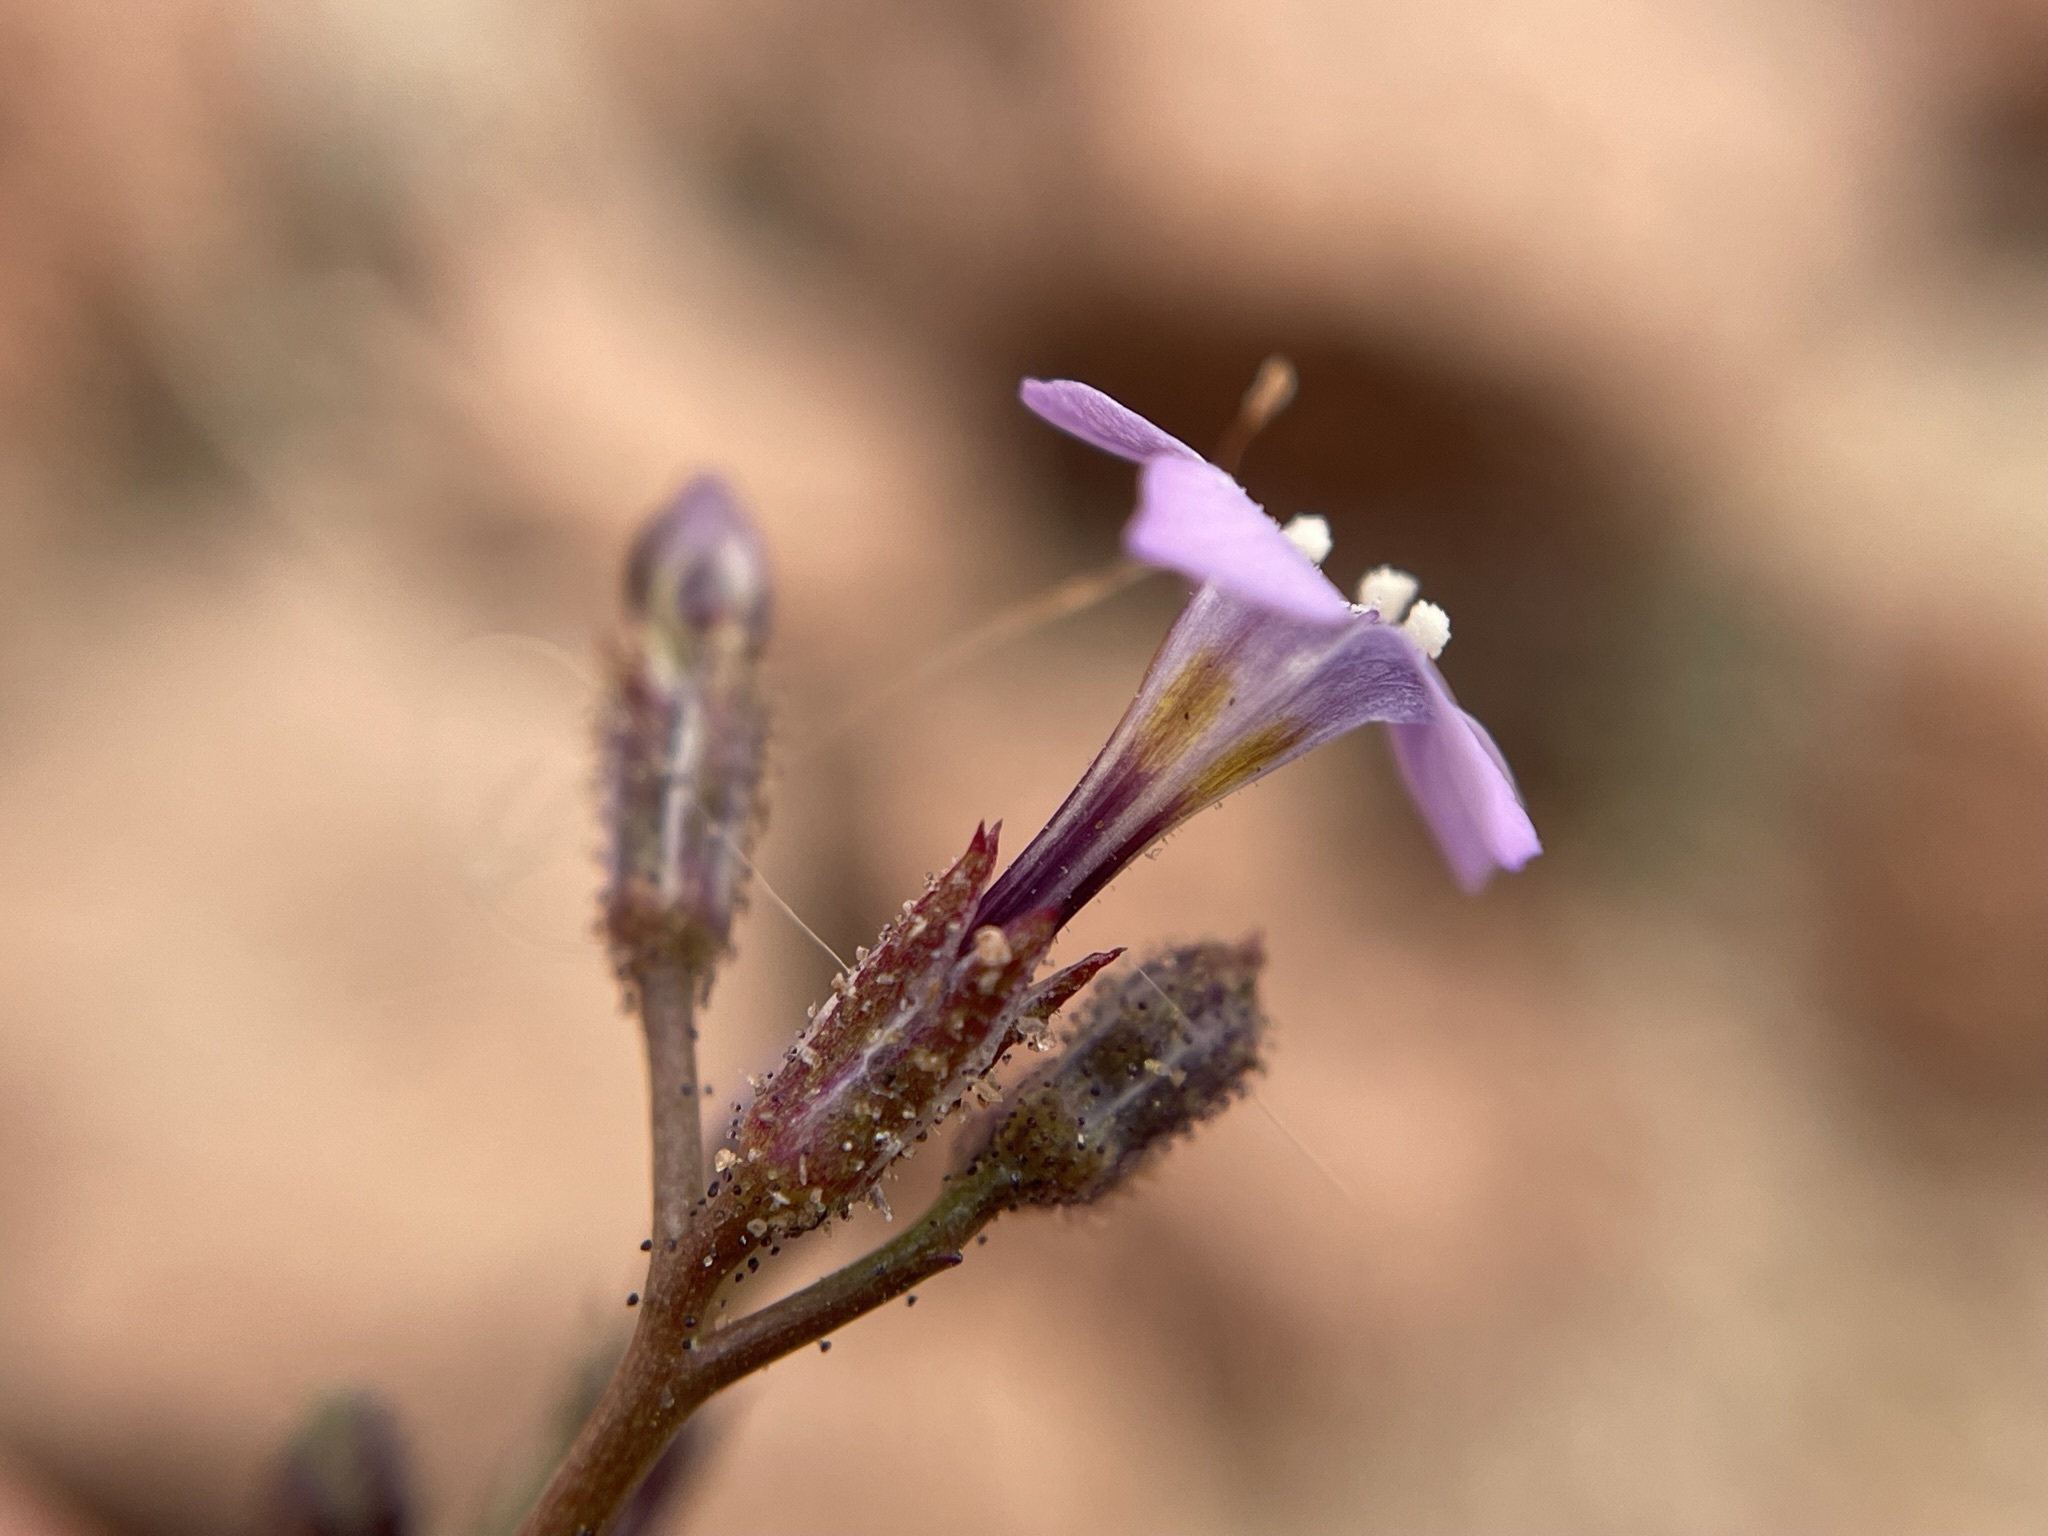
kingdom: Plantae
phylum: Tracheophyta
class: Magnoliopsida
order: Ericales
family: Polemoniaceae
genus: Gilia
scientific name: Gilia sinuata
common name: Rosy gilia
